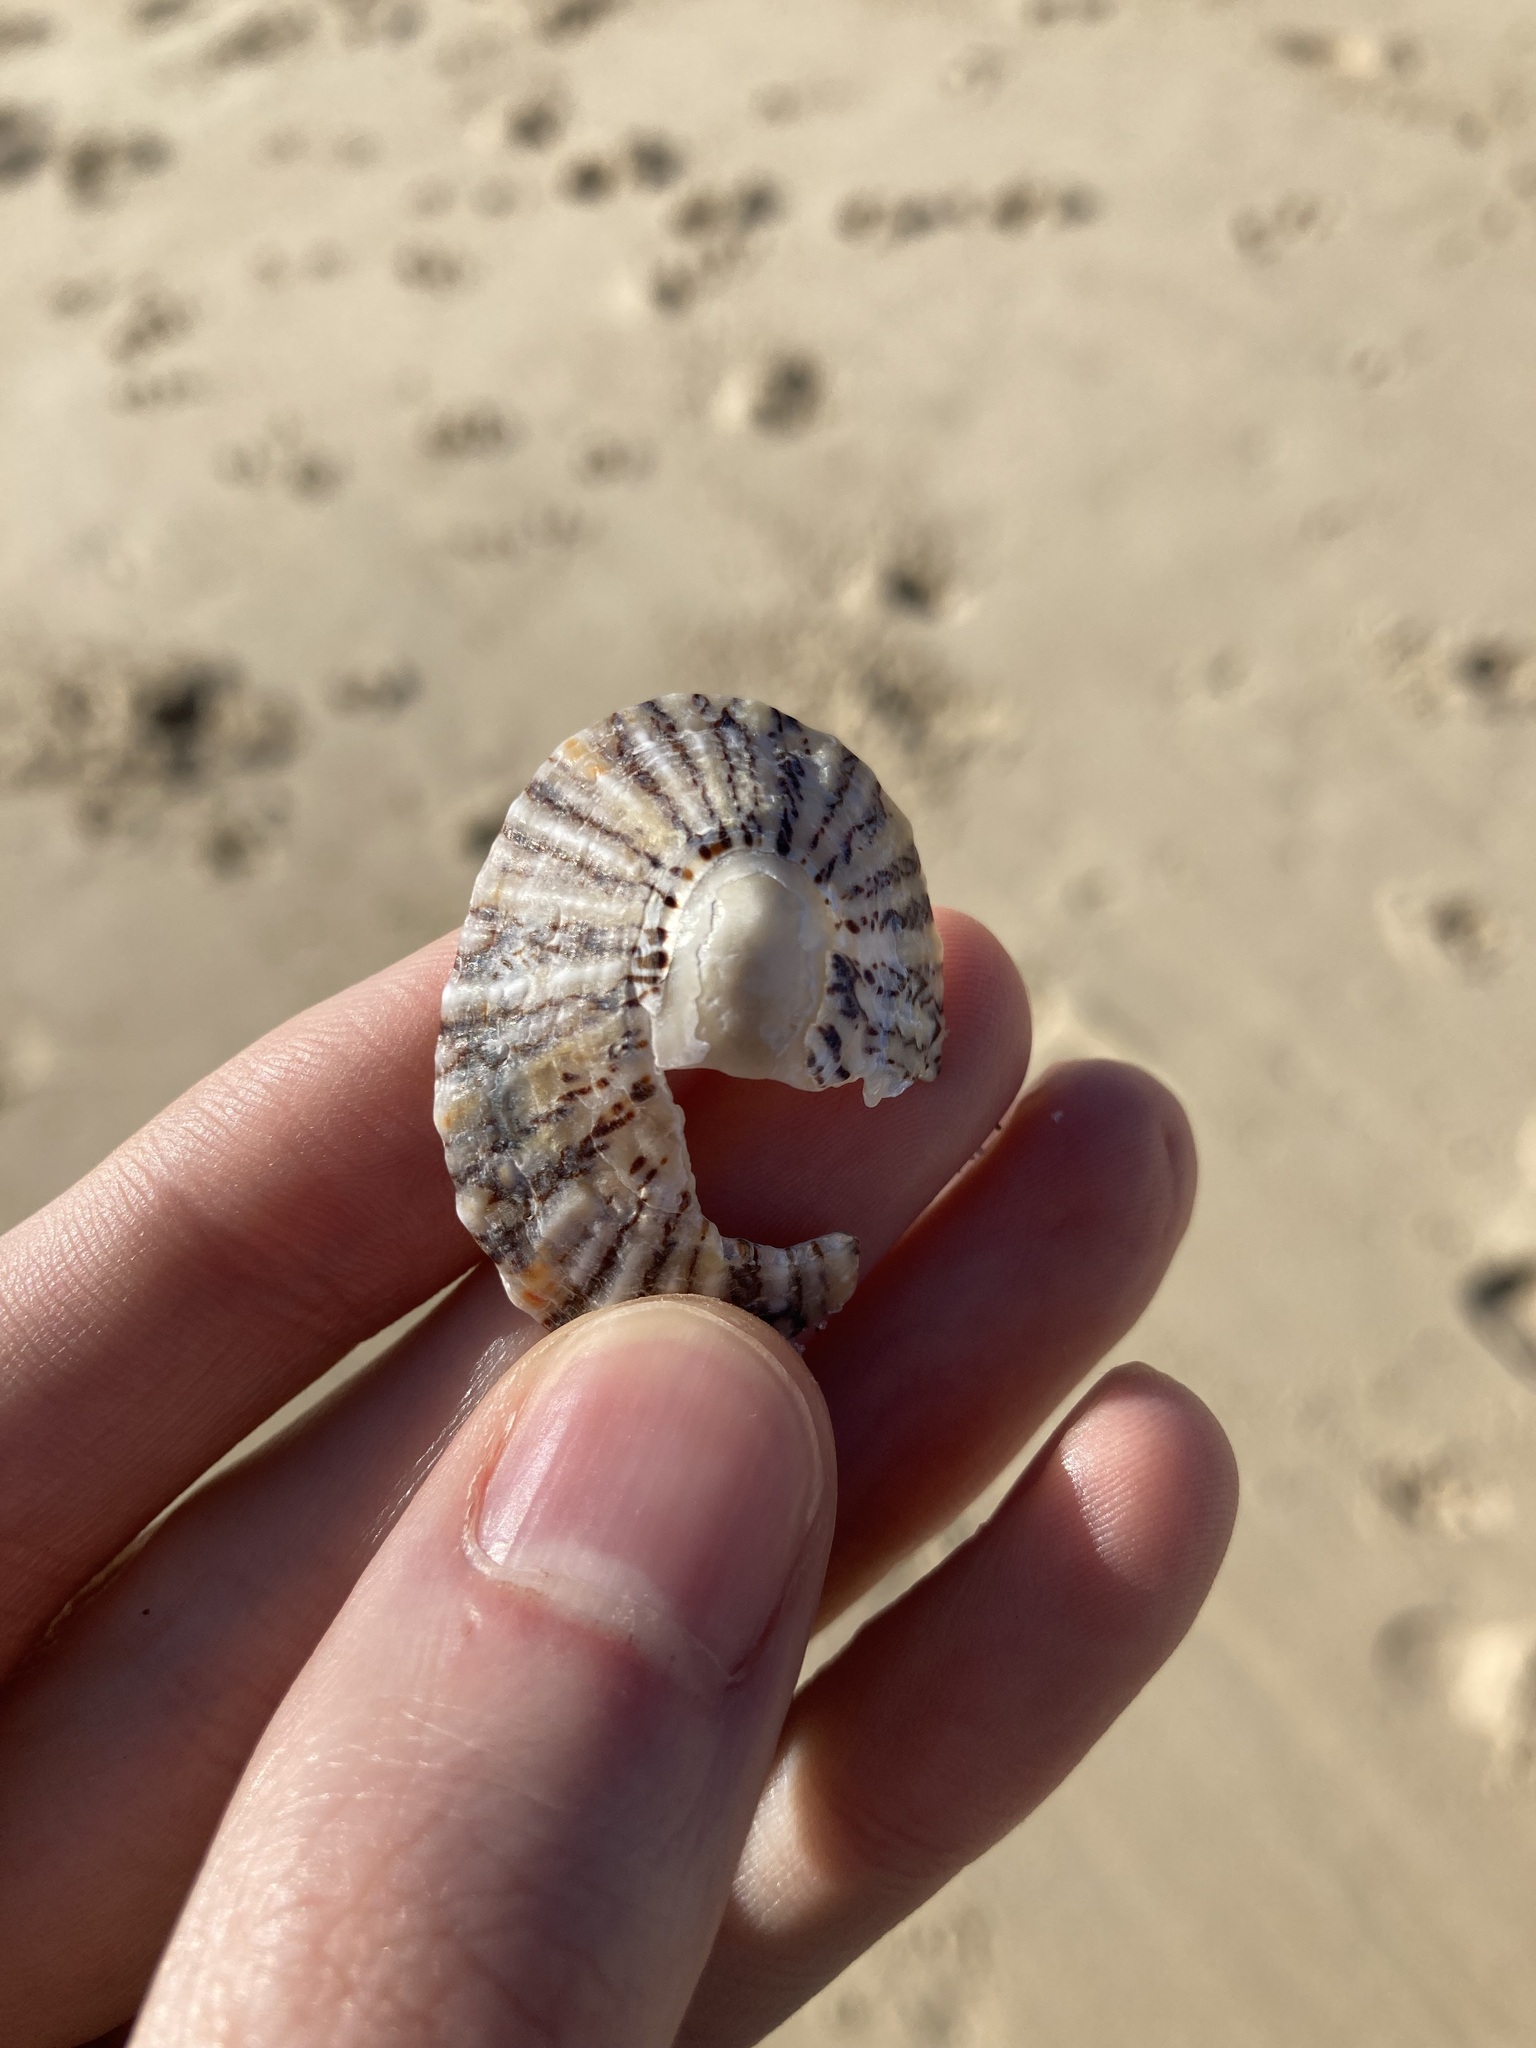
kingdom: Animalia
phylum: Mollusca
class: Gastropoda
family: Nacellidae
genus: Cellana
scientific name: Cellana tramoserica
